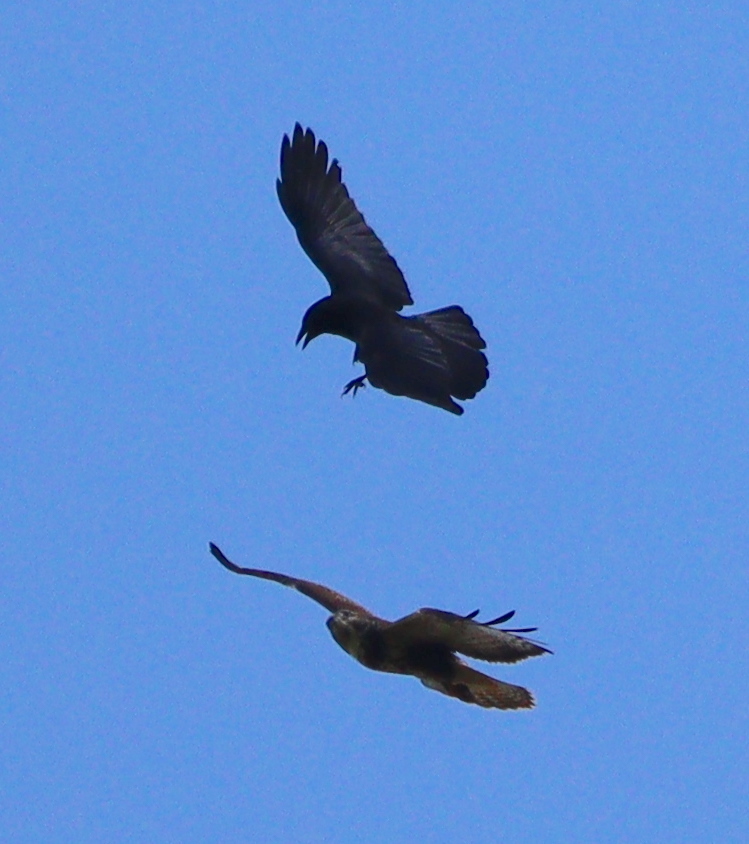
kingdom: Animalia
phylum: Chordata
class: Aves
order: Accipitriformes
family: Accipitridae
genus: Buteo
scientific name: Buteo buteo
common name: Common buzzard
